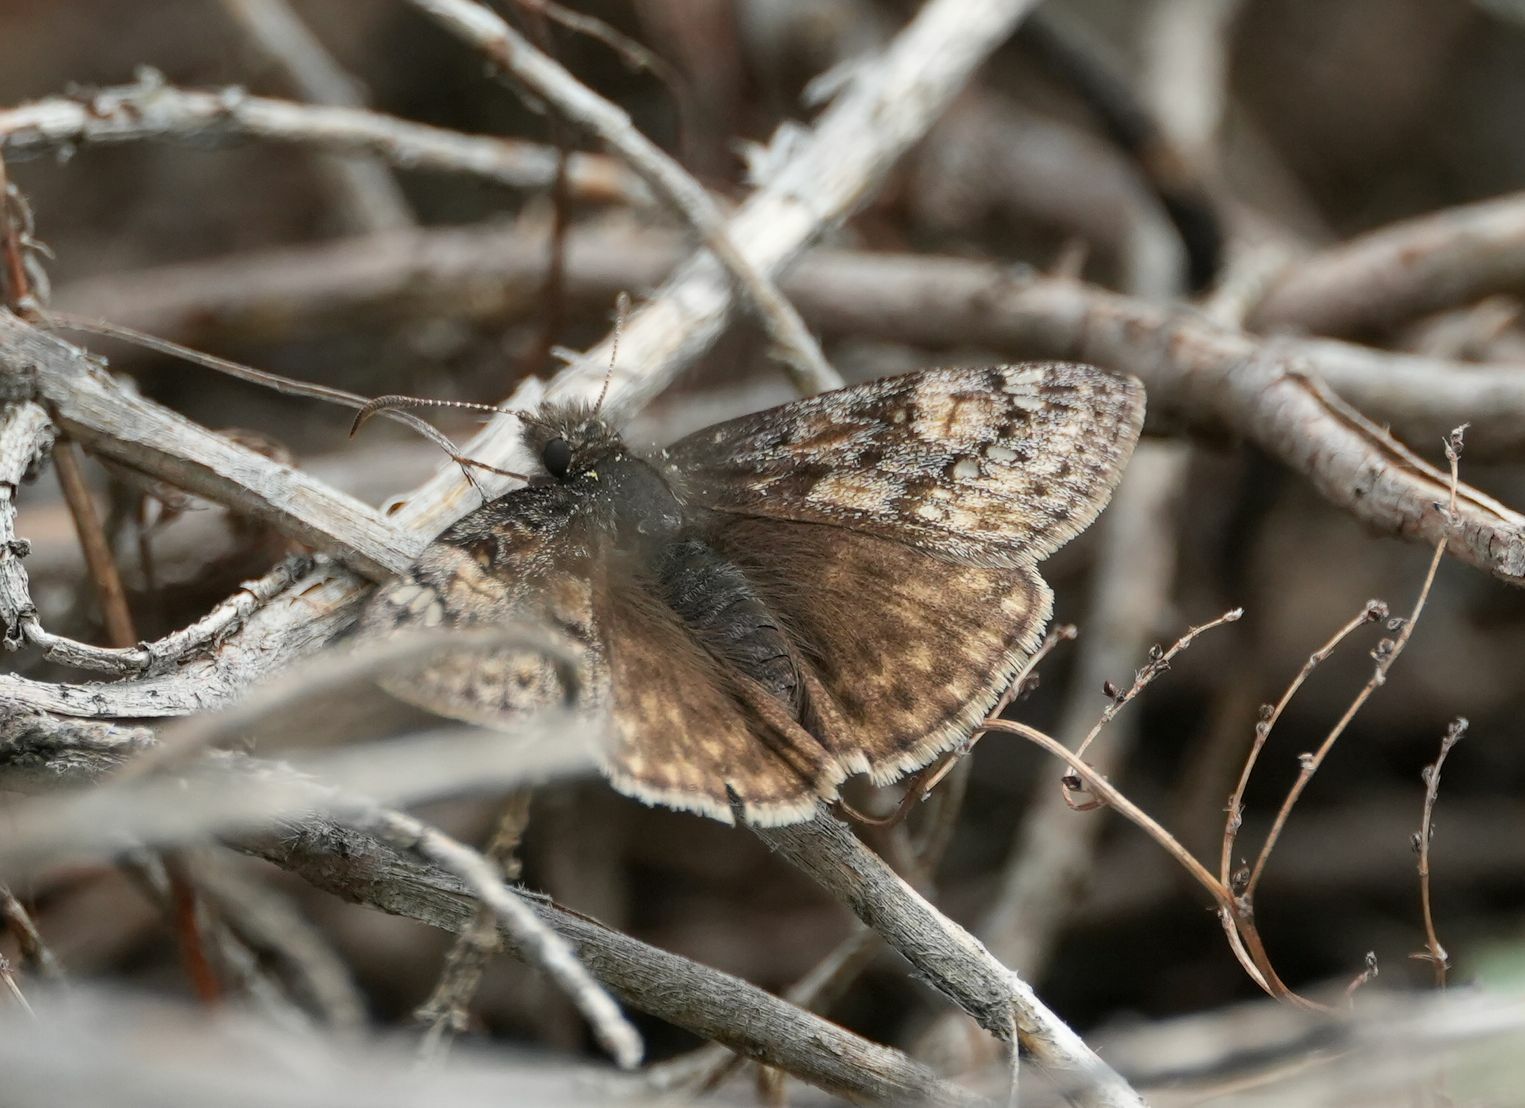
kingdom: Animalia
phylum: Arthropoda
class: Insecta
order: Lepidoptera
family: Hesperiidae
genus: Erynnis
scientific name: Erynnis juvenalis
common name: Juvenal's duskywing
